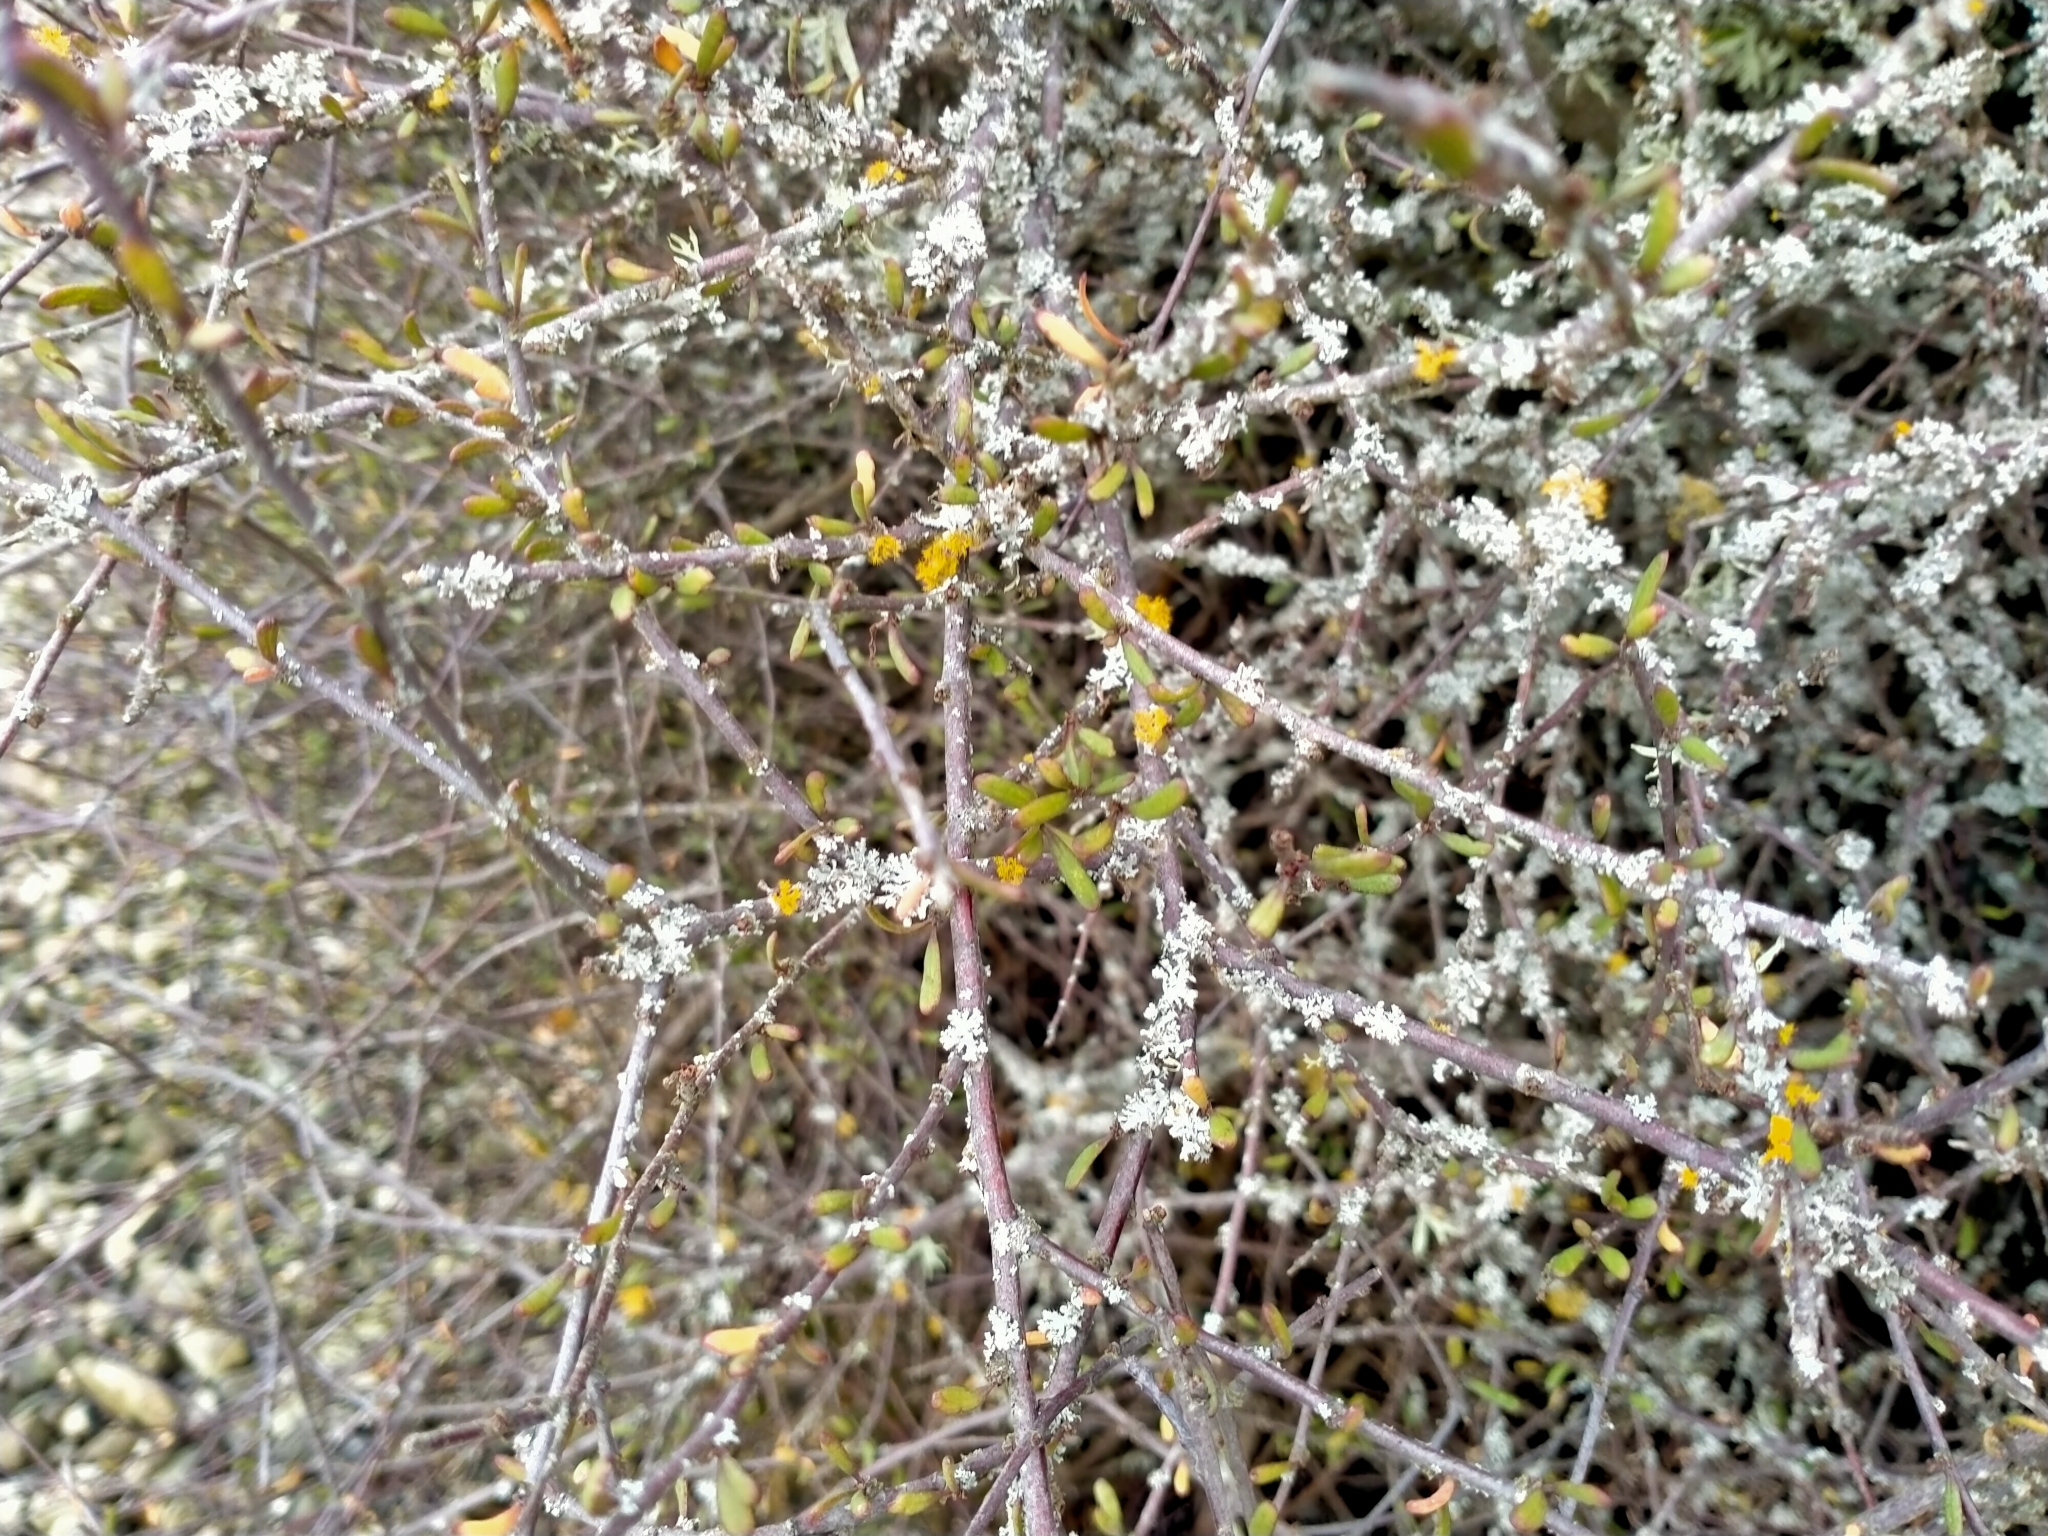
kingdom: Plantae
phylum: Tracheophyta
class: Magnoliopsida
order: Malvales
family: Malvaceae
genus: Plagianthus
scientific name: Plagianthus divaricatus
